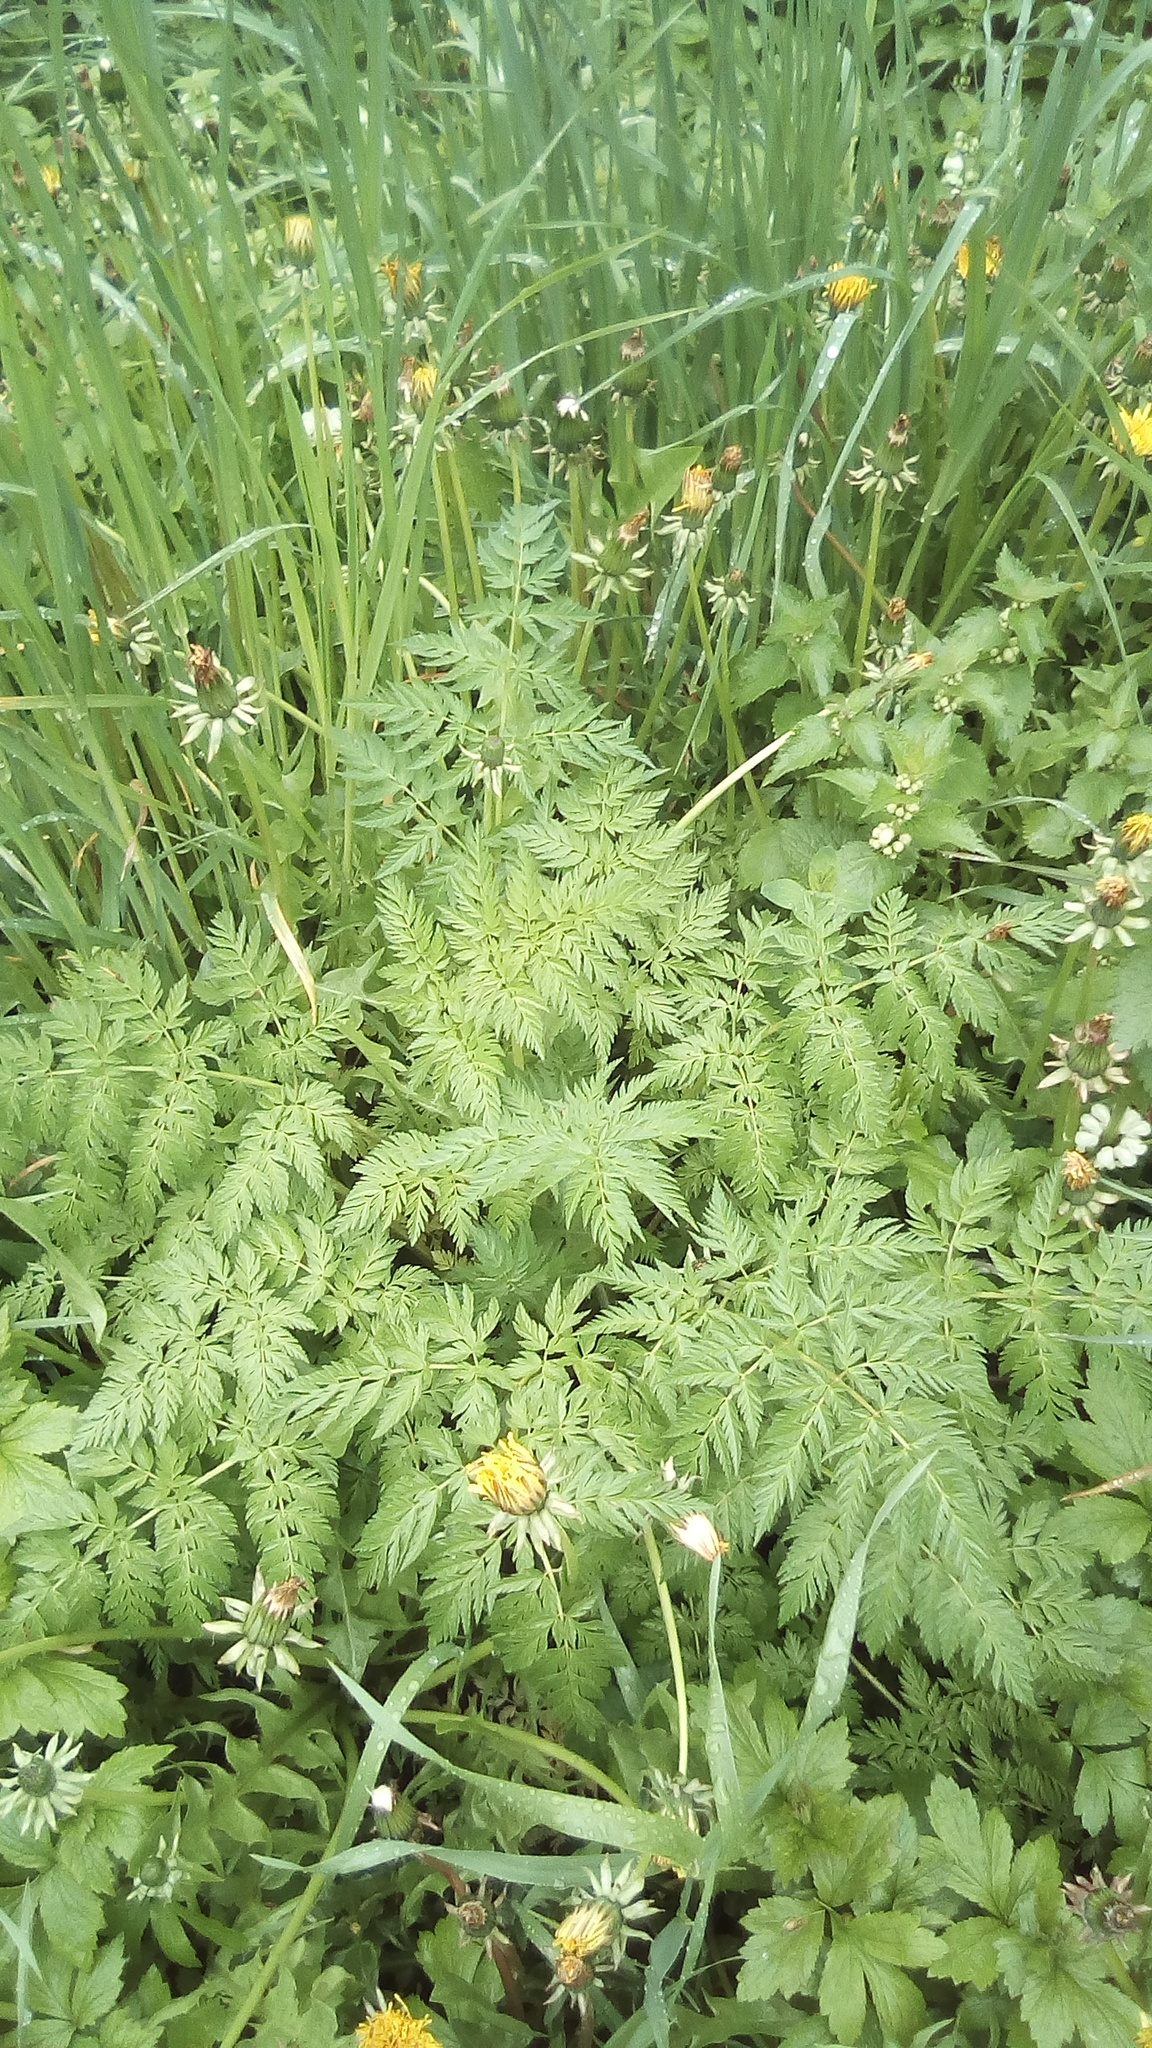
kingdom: Plantae
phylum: Tracheophyta
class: Magnoliopsida
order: Apiales
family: Apiaceae
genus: Anthriscus
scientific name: Anthriscus sylvestris
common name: Cow parsley
